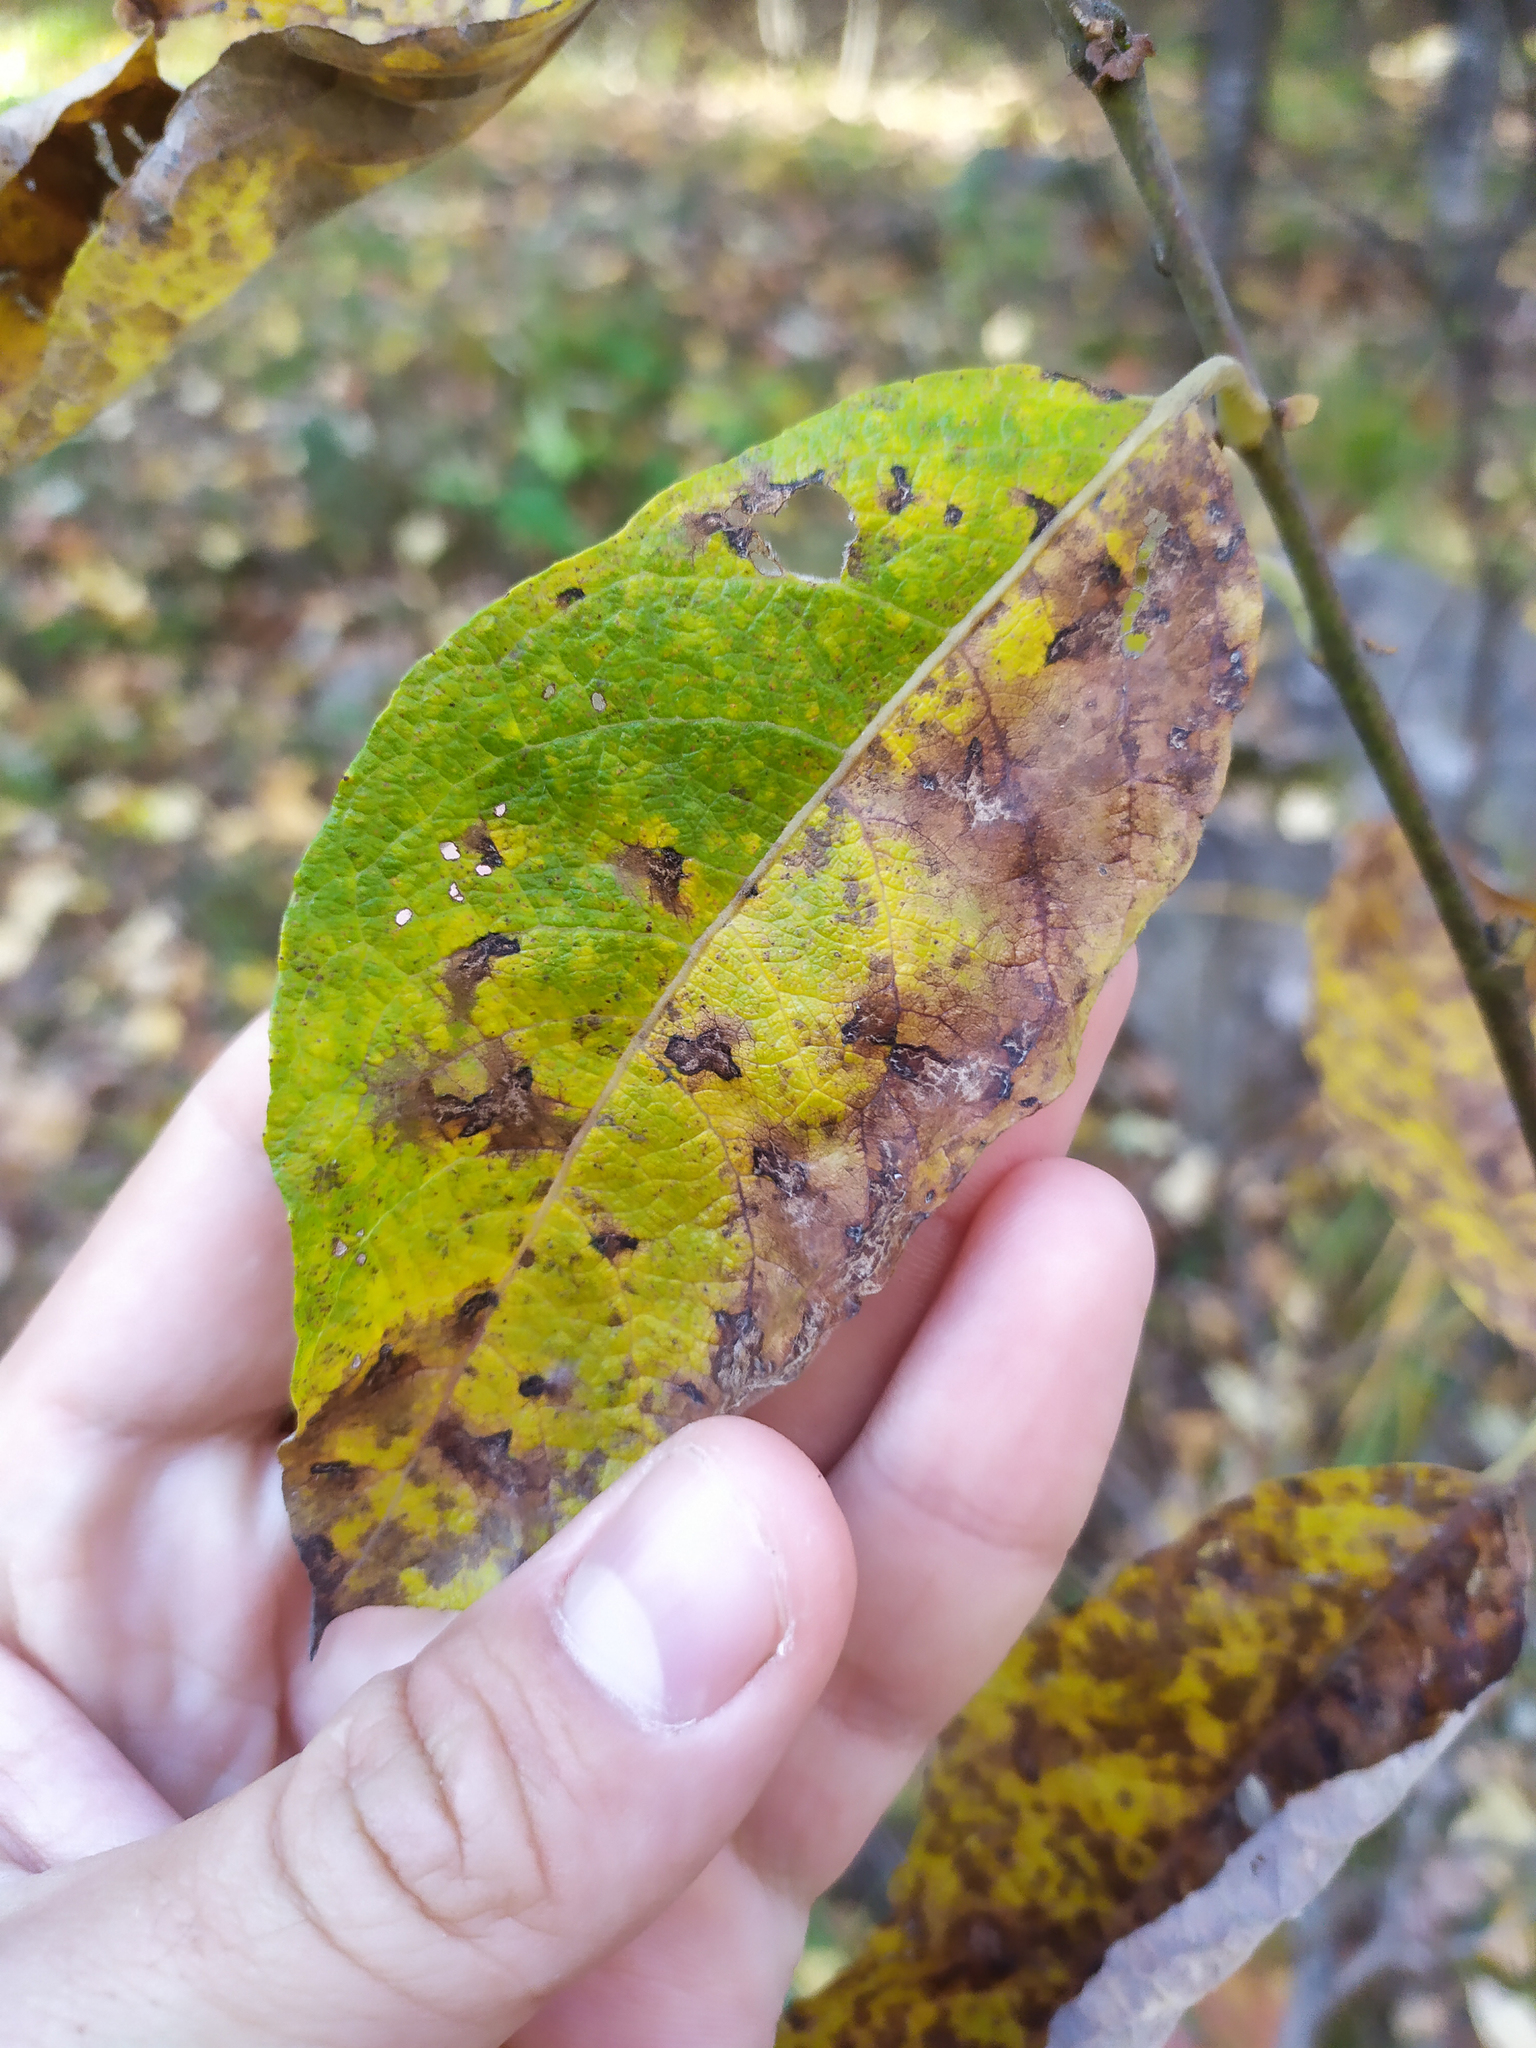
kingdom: Plantae
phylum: Tracheophyta
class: Magnoliopsida
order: Malpighiales
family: Salicaceae
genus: Salix
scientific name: Salix caprea
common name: Goat willow
